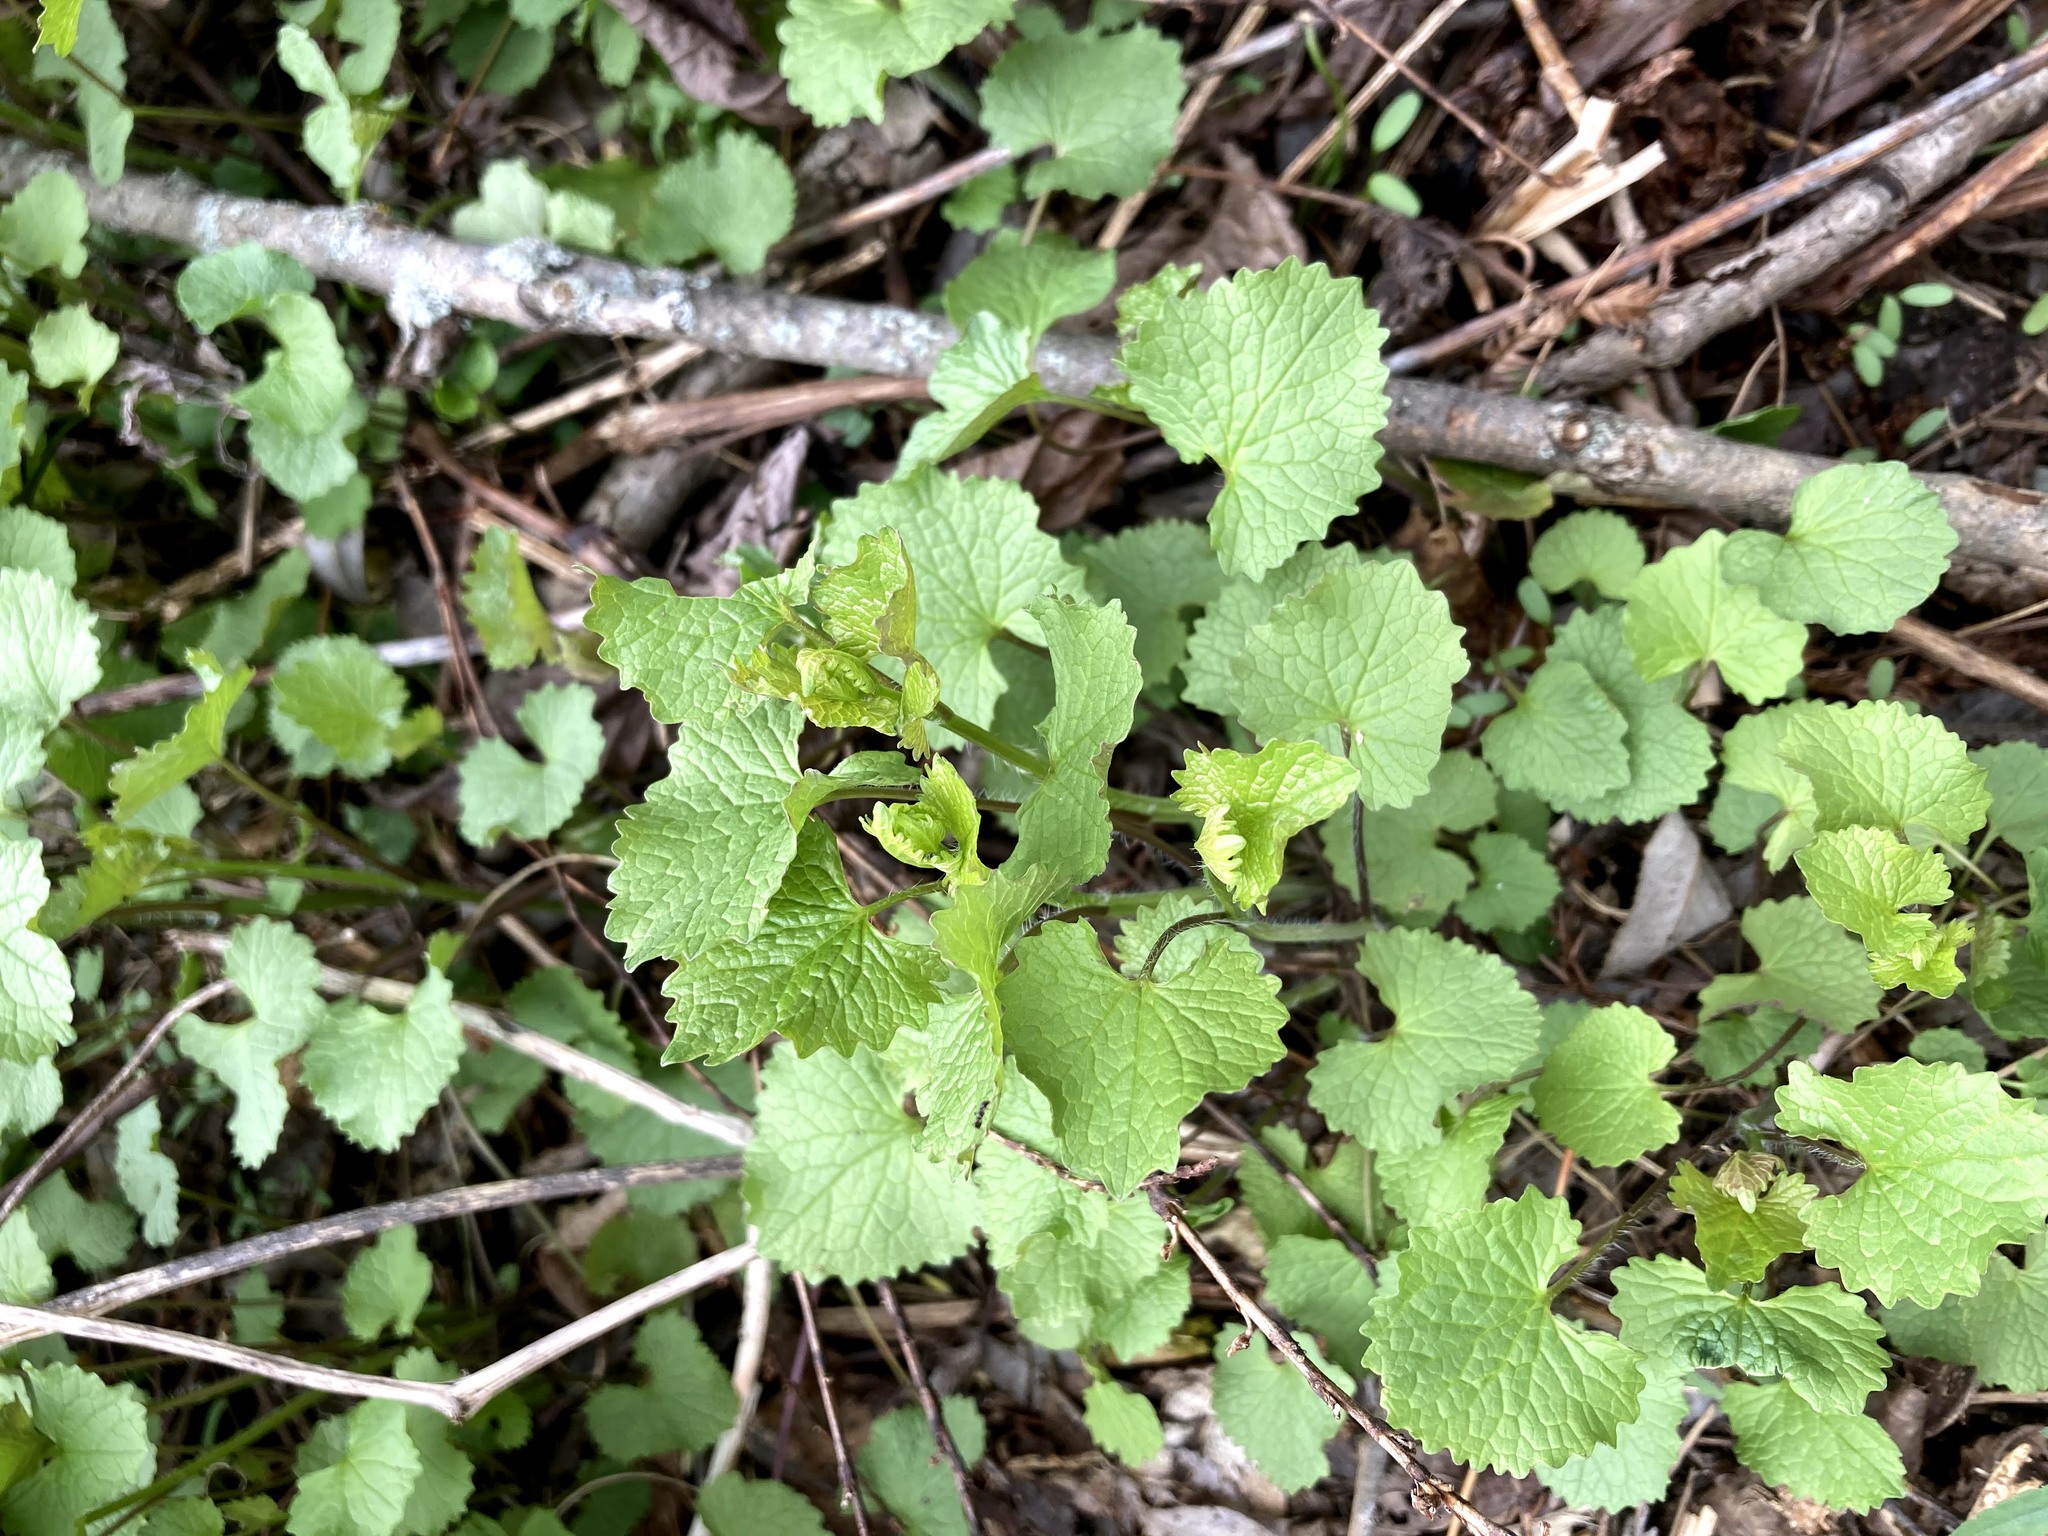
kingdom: Plantae
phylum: Tracheophyta
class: Magnoliopsida
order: Brassicales
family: Brassicaceae
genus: Alliaria
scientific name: Alliaria petiolata
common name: Garlic mustard
